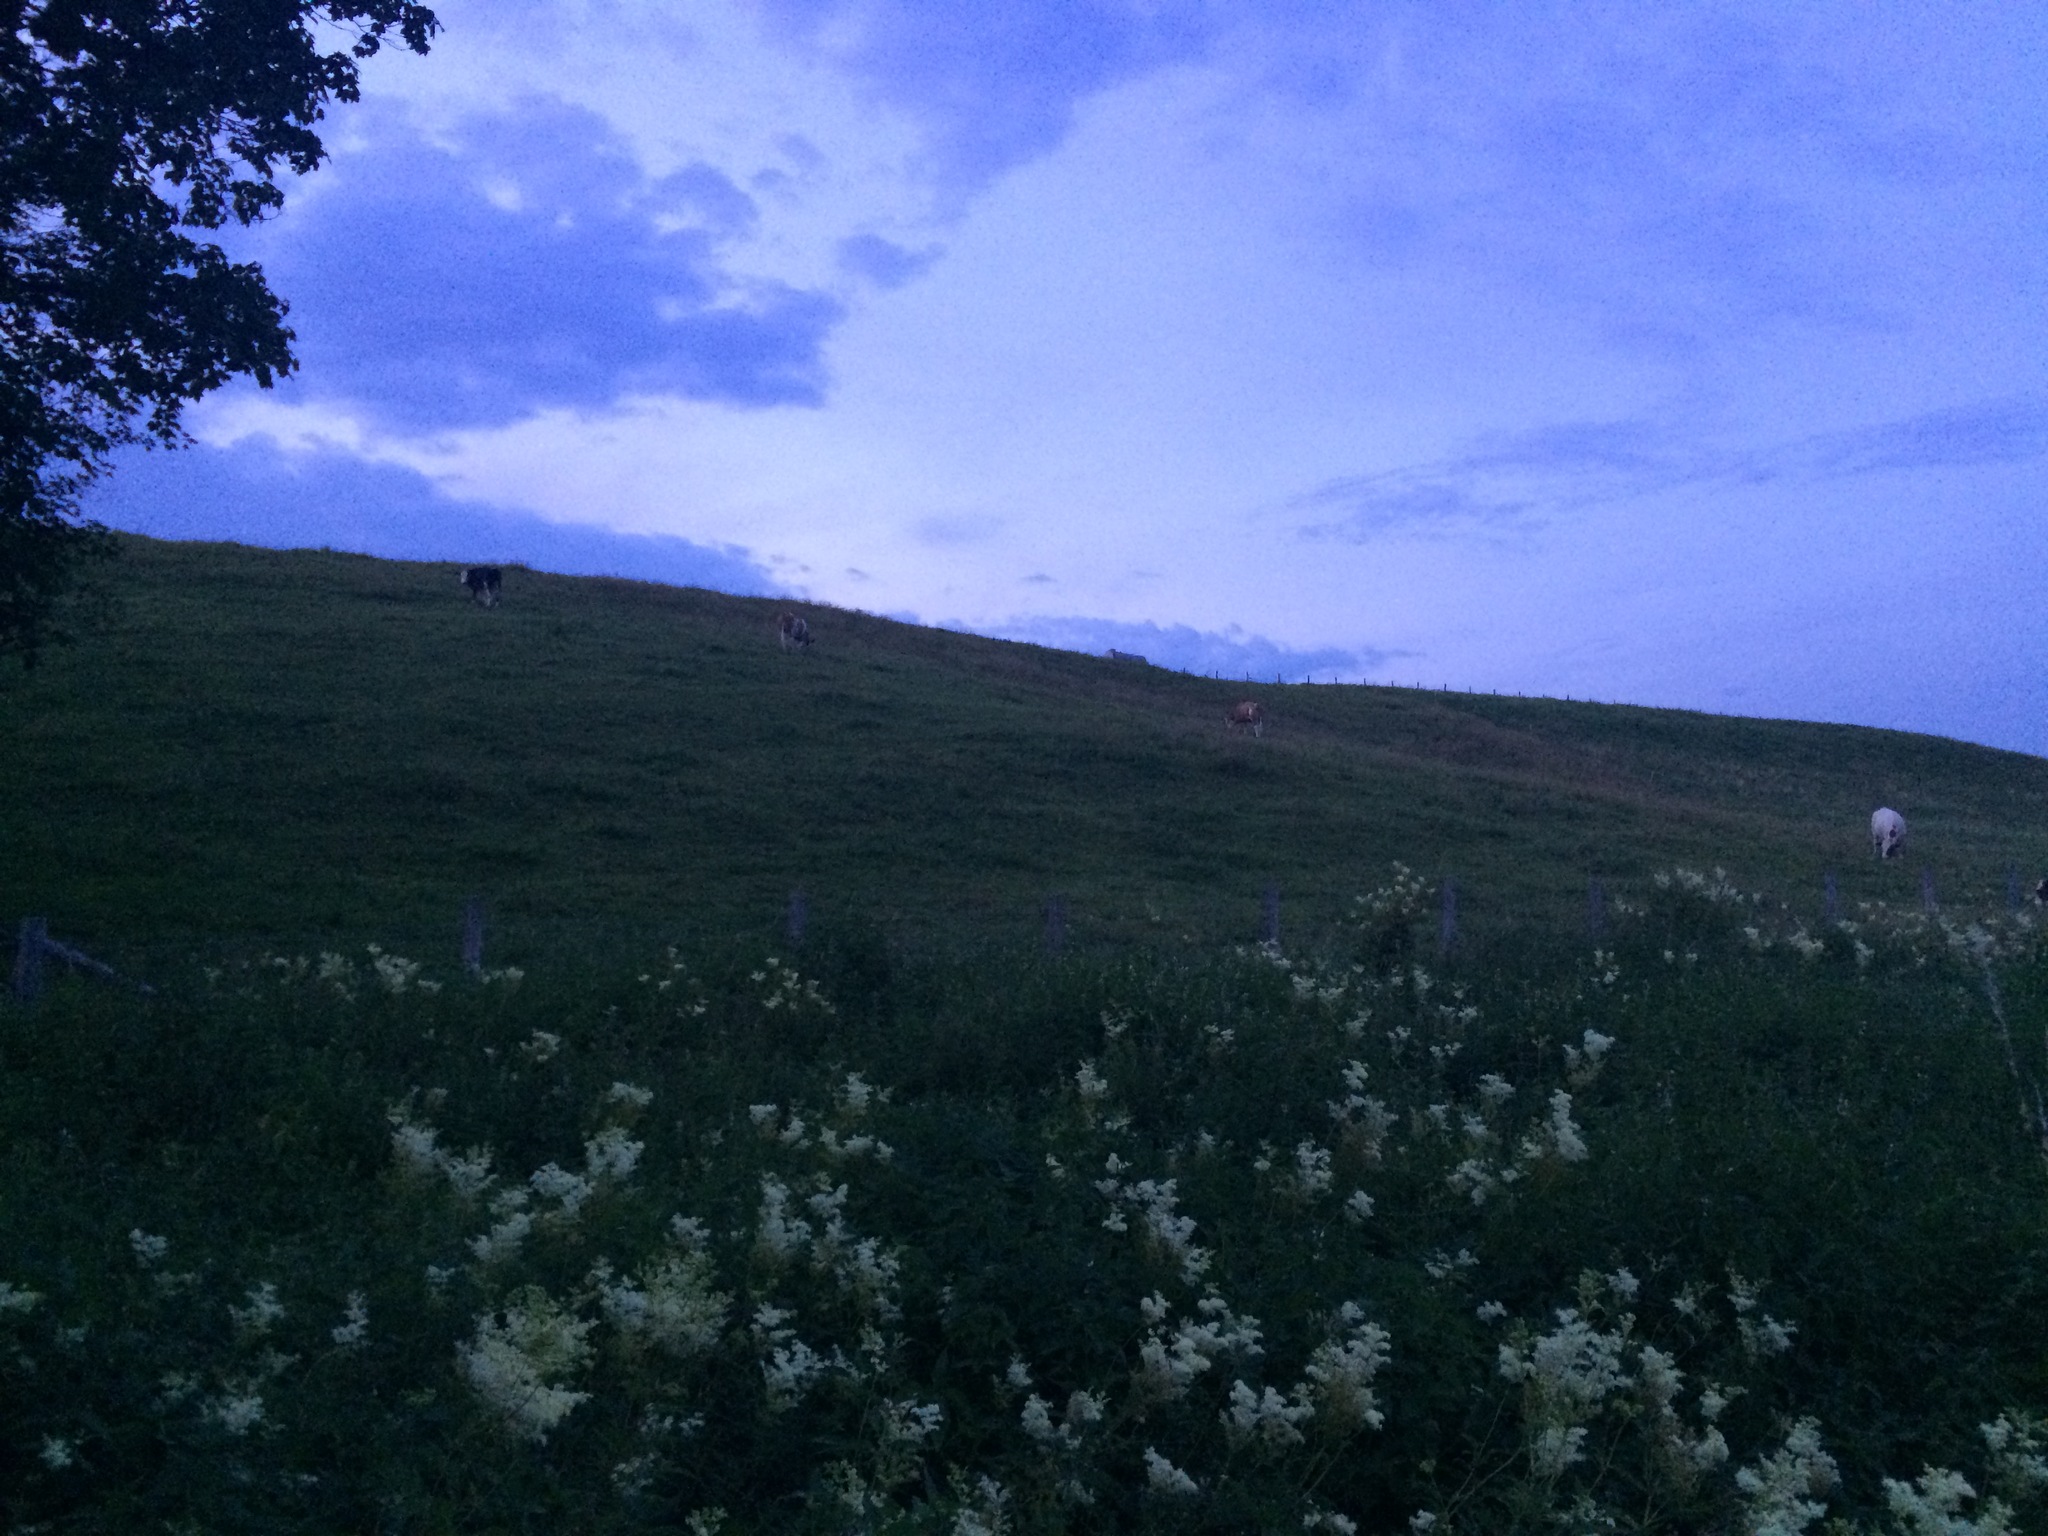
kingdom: Plantae
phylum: Tracheophyta
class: Magnoliopsida
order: Rosales
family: Rosaceae
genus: Filipendula
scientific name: Filipendula ulmaria
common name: Meadowsweet
